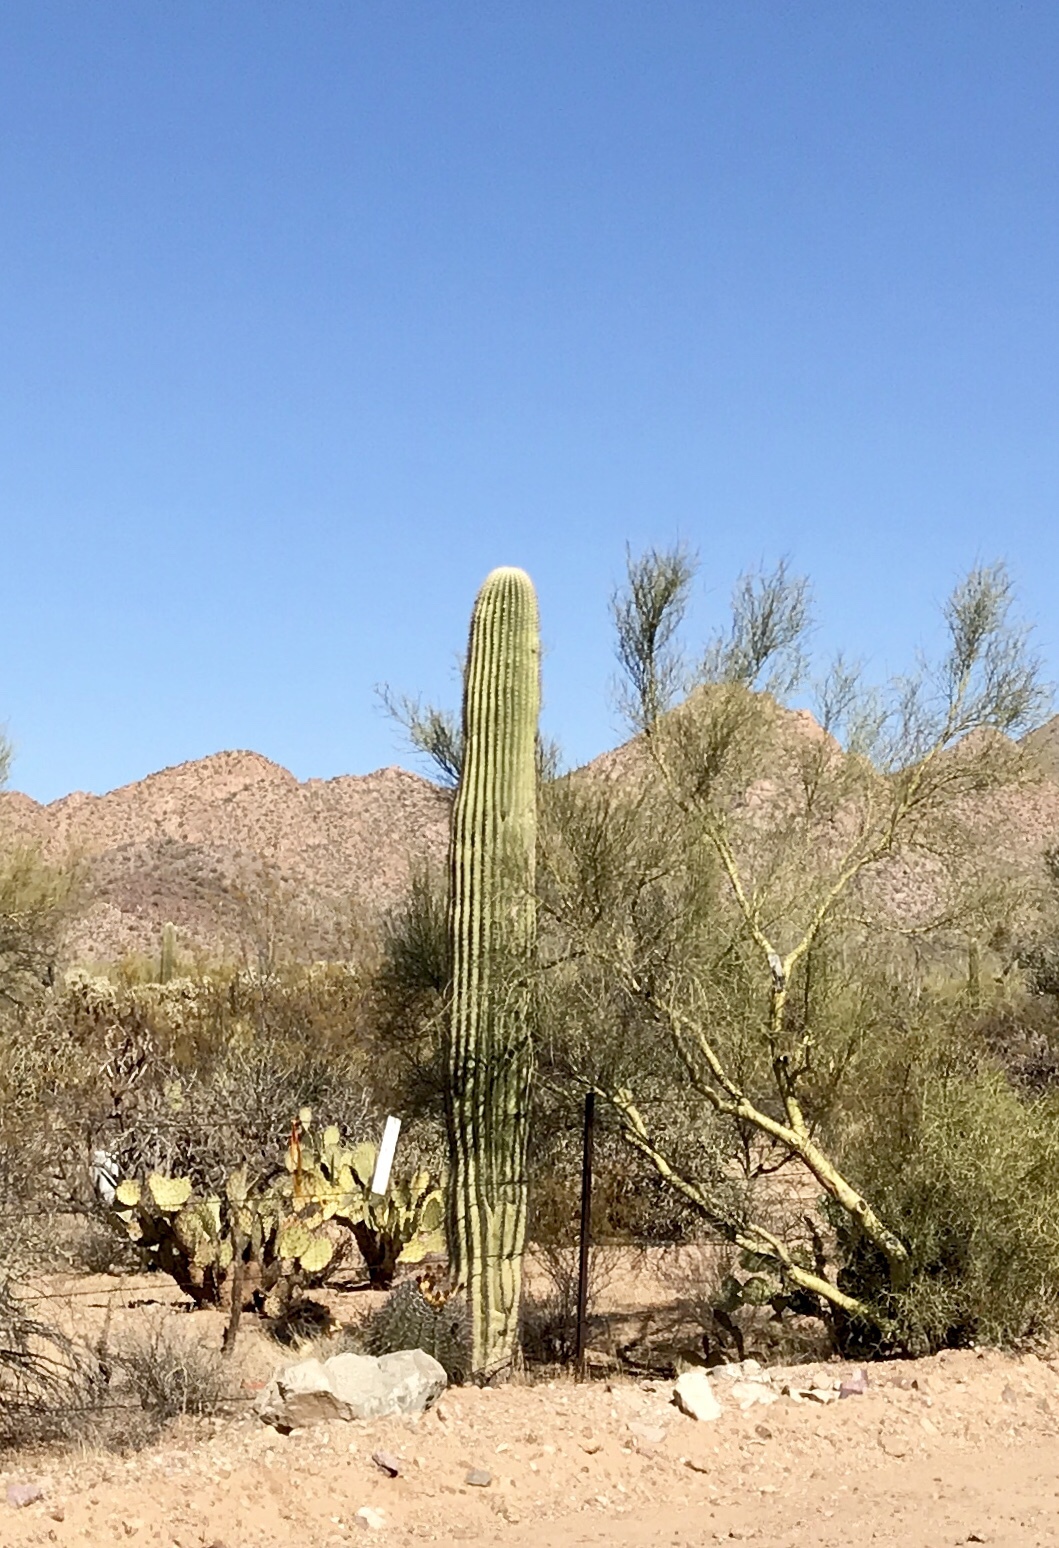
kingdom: Plantae
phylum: Tracheophyta
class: Magnoliopsida
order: Caryophyllales
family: Cactaceae
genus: Carnegiea
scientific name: Carnegiea gigantea
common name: Saguaro
